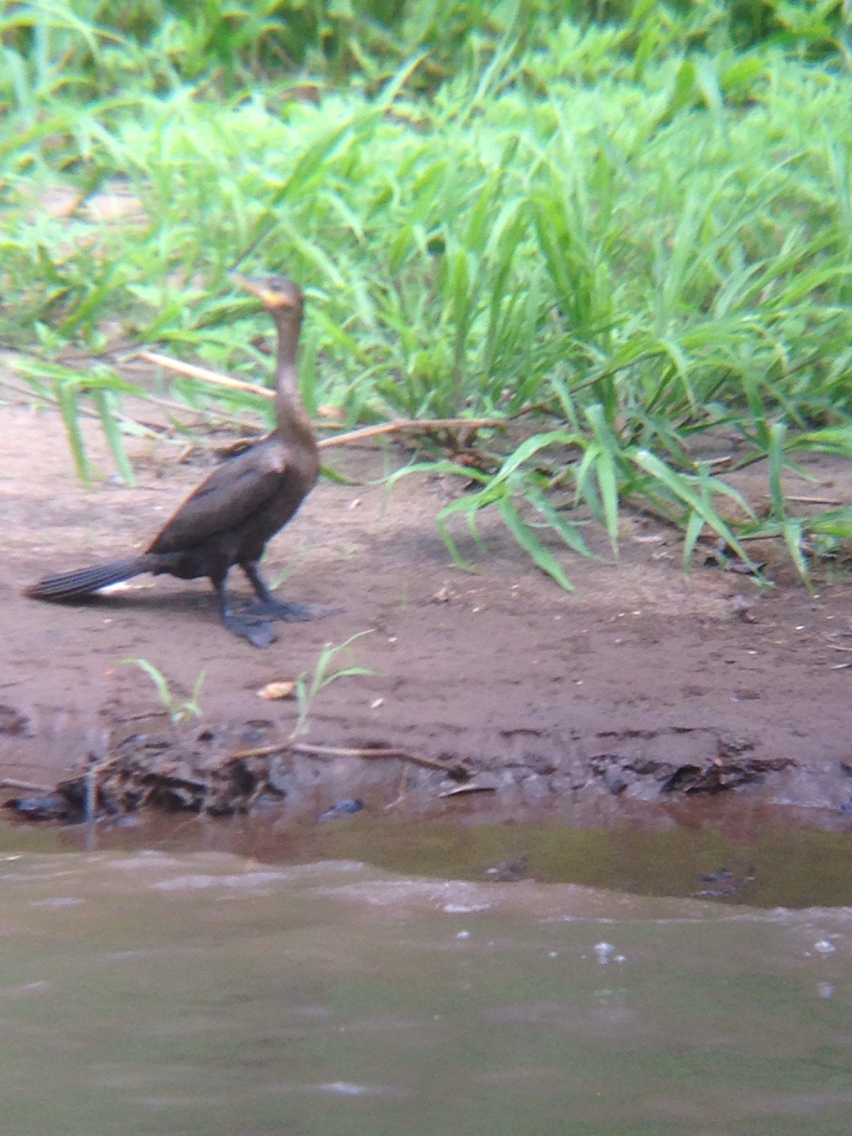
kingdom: Animalia
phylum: Chordata
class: Aves
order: Suliformes
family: Phalacrocoracidae
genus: Phalacrocorax
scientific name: Phalacrocorax brasilianus
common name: Neotropic cormorant
